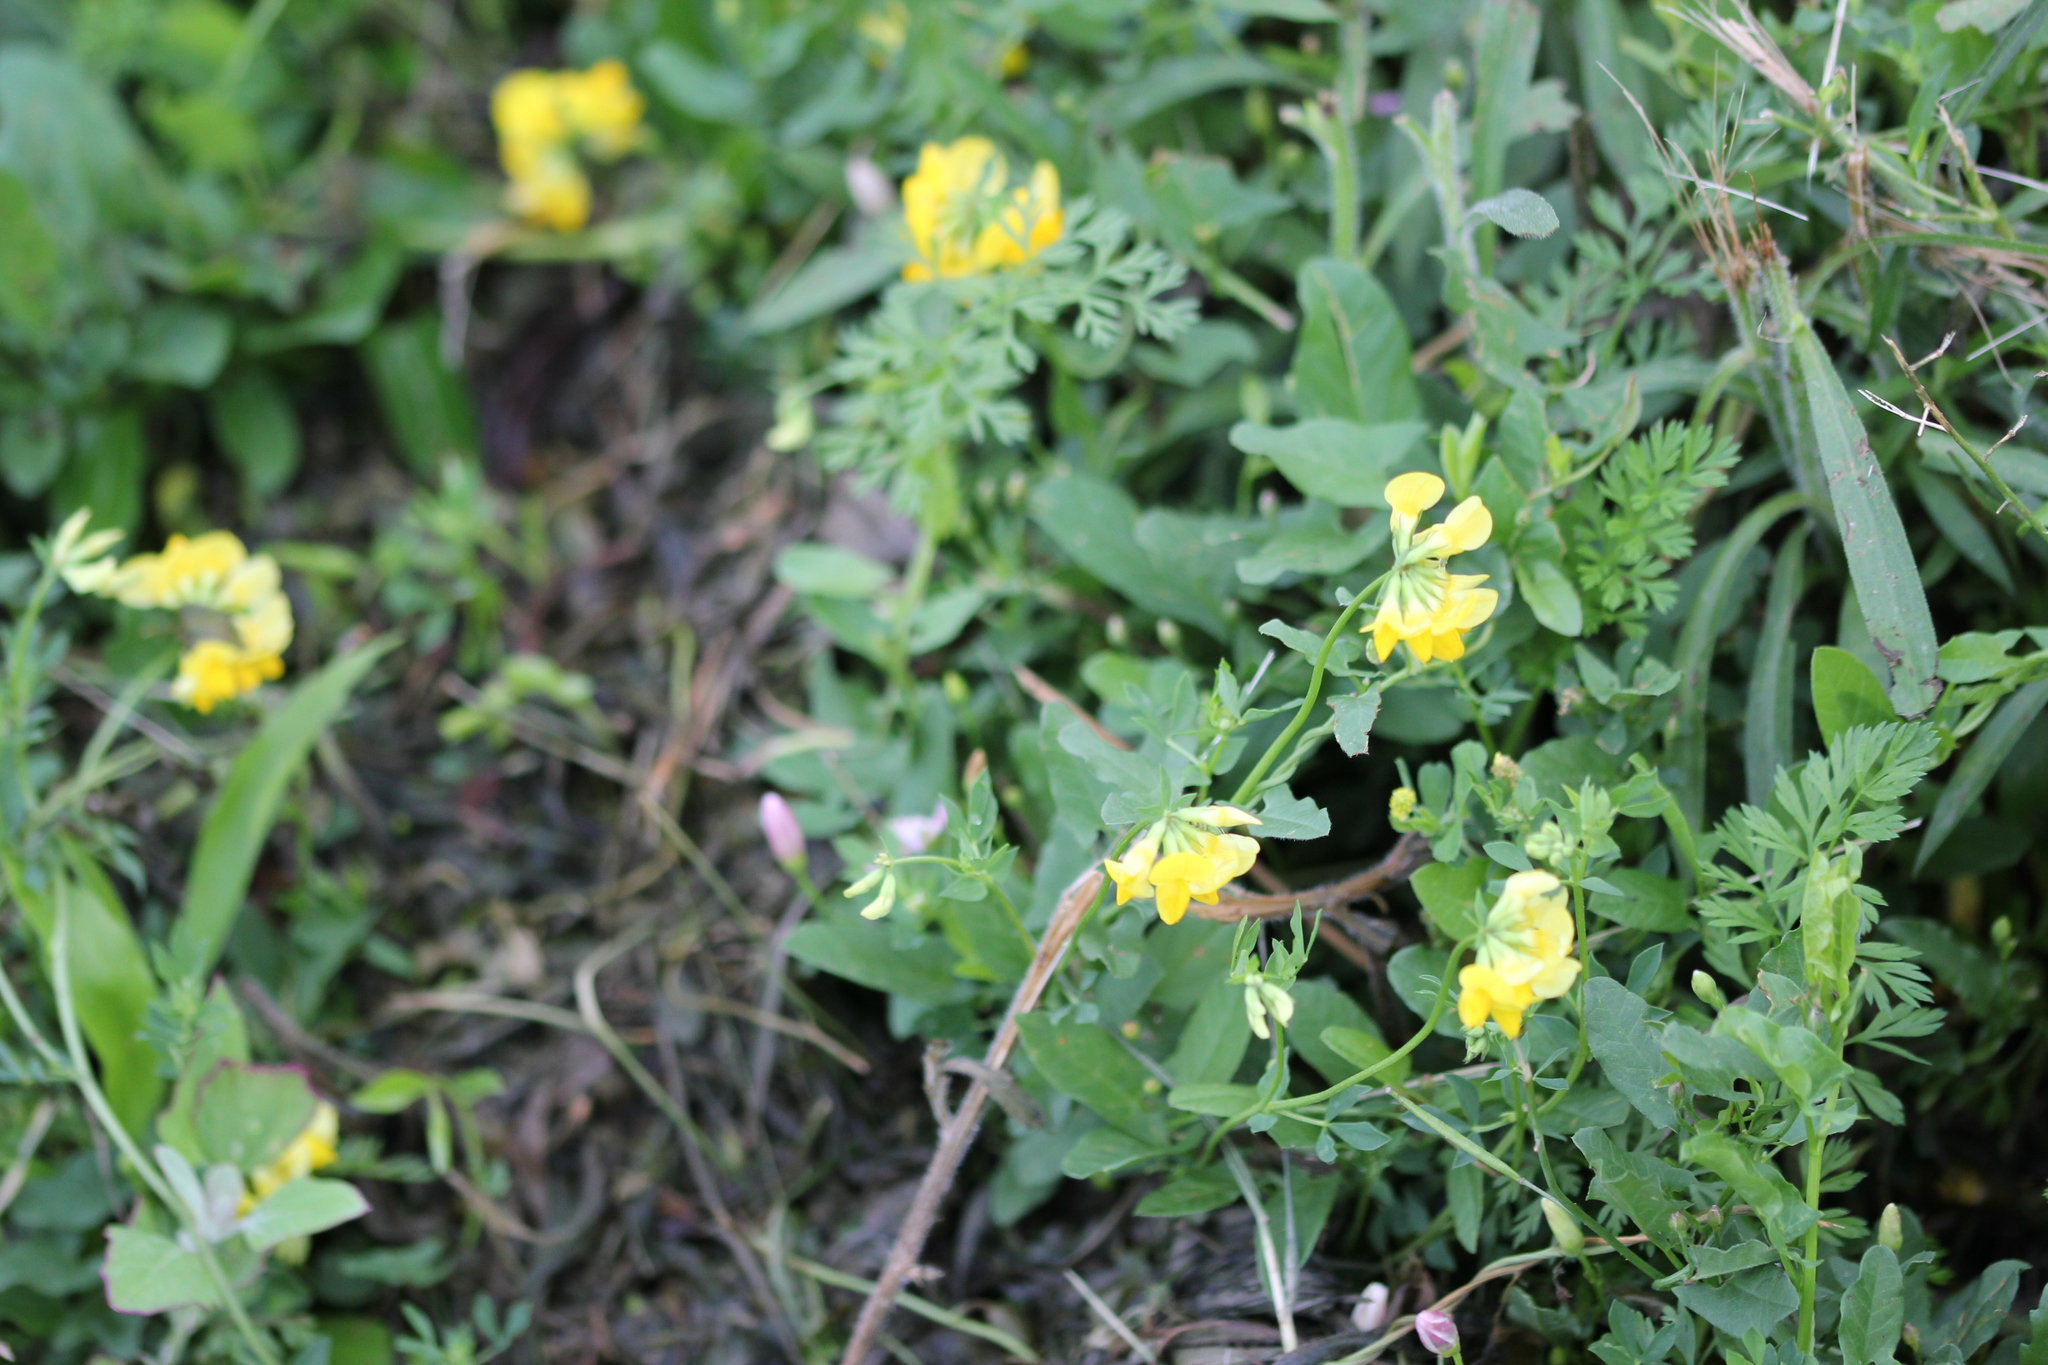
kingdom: Plantae
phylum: Tracheophyta
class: Magnoliopsida
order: Fabales
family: Fabaceae
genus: Lotus
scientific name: Lotus corniculatus
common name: Common bird's-foot-trefoil
